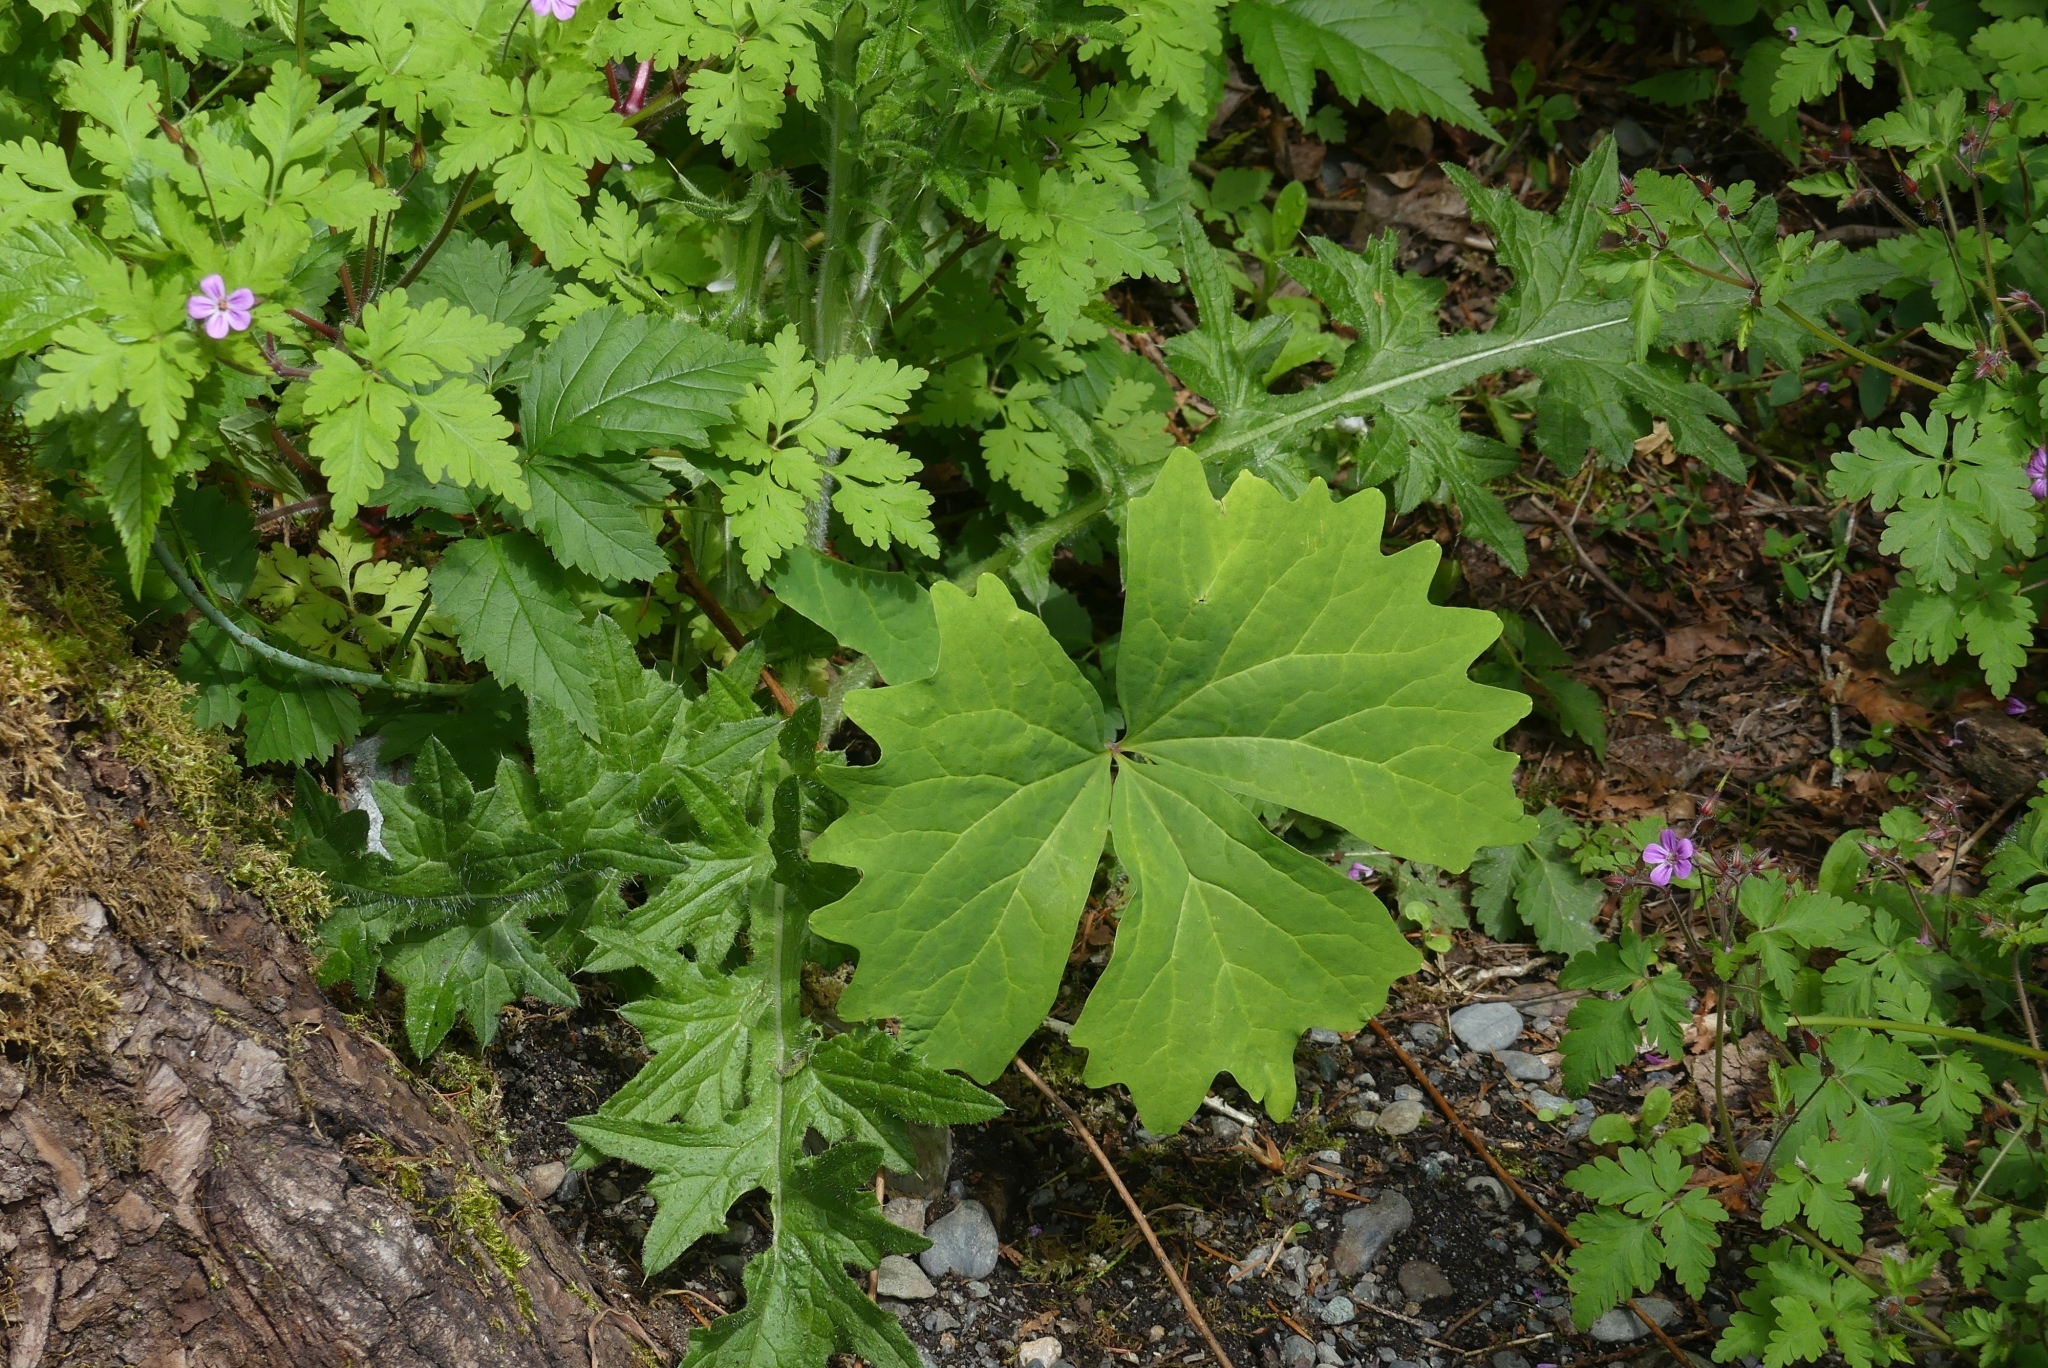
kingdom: Plantae
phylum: Tracheophyta
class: Magnoliopsida
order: Ranunculales
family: Berberidaceae
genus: Achlys
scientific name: Achlys triphylla
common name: Vanilla-leaf
